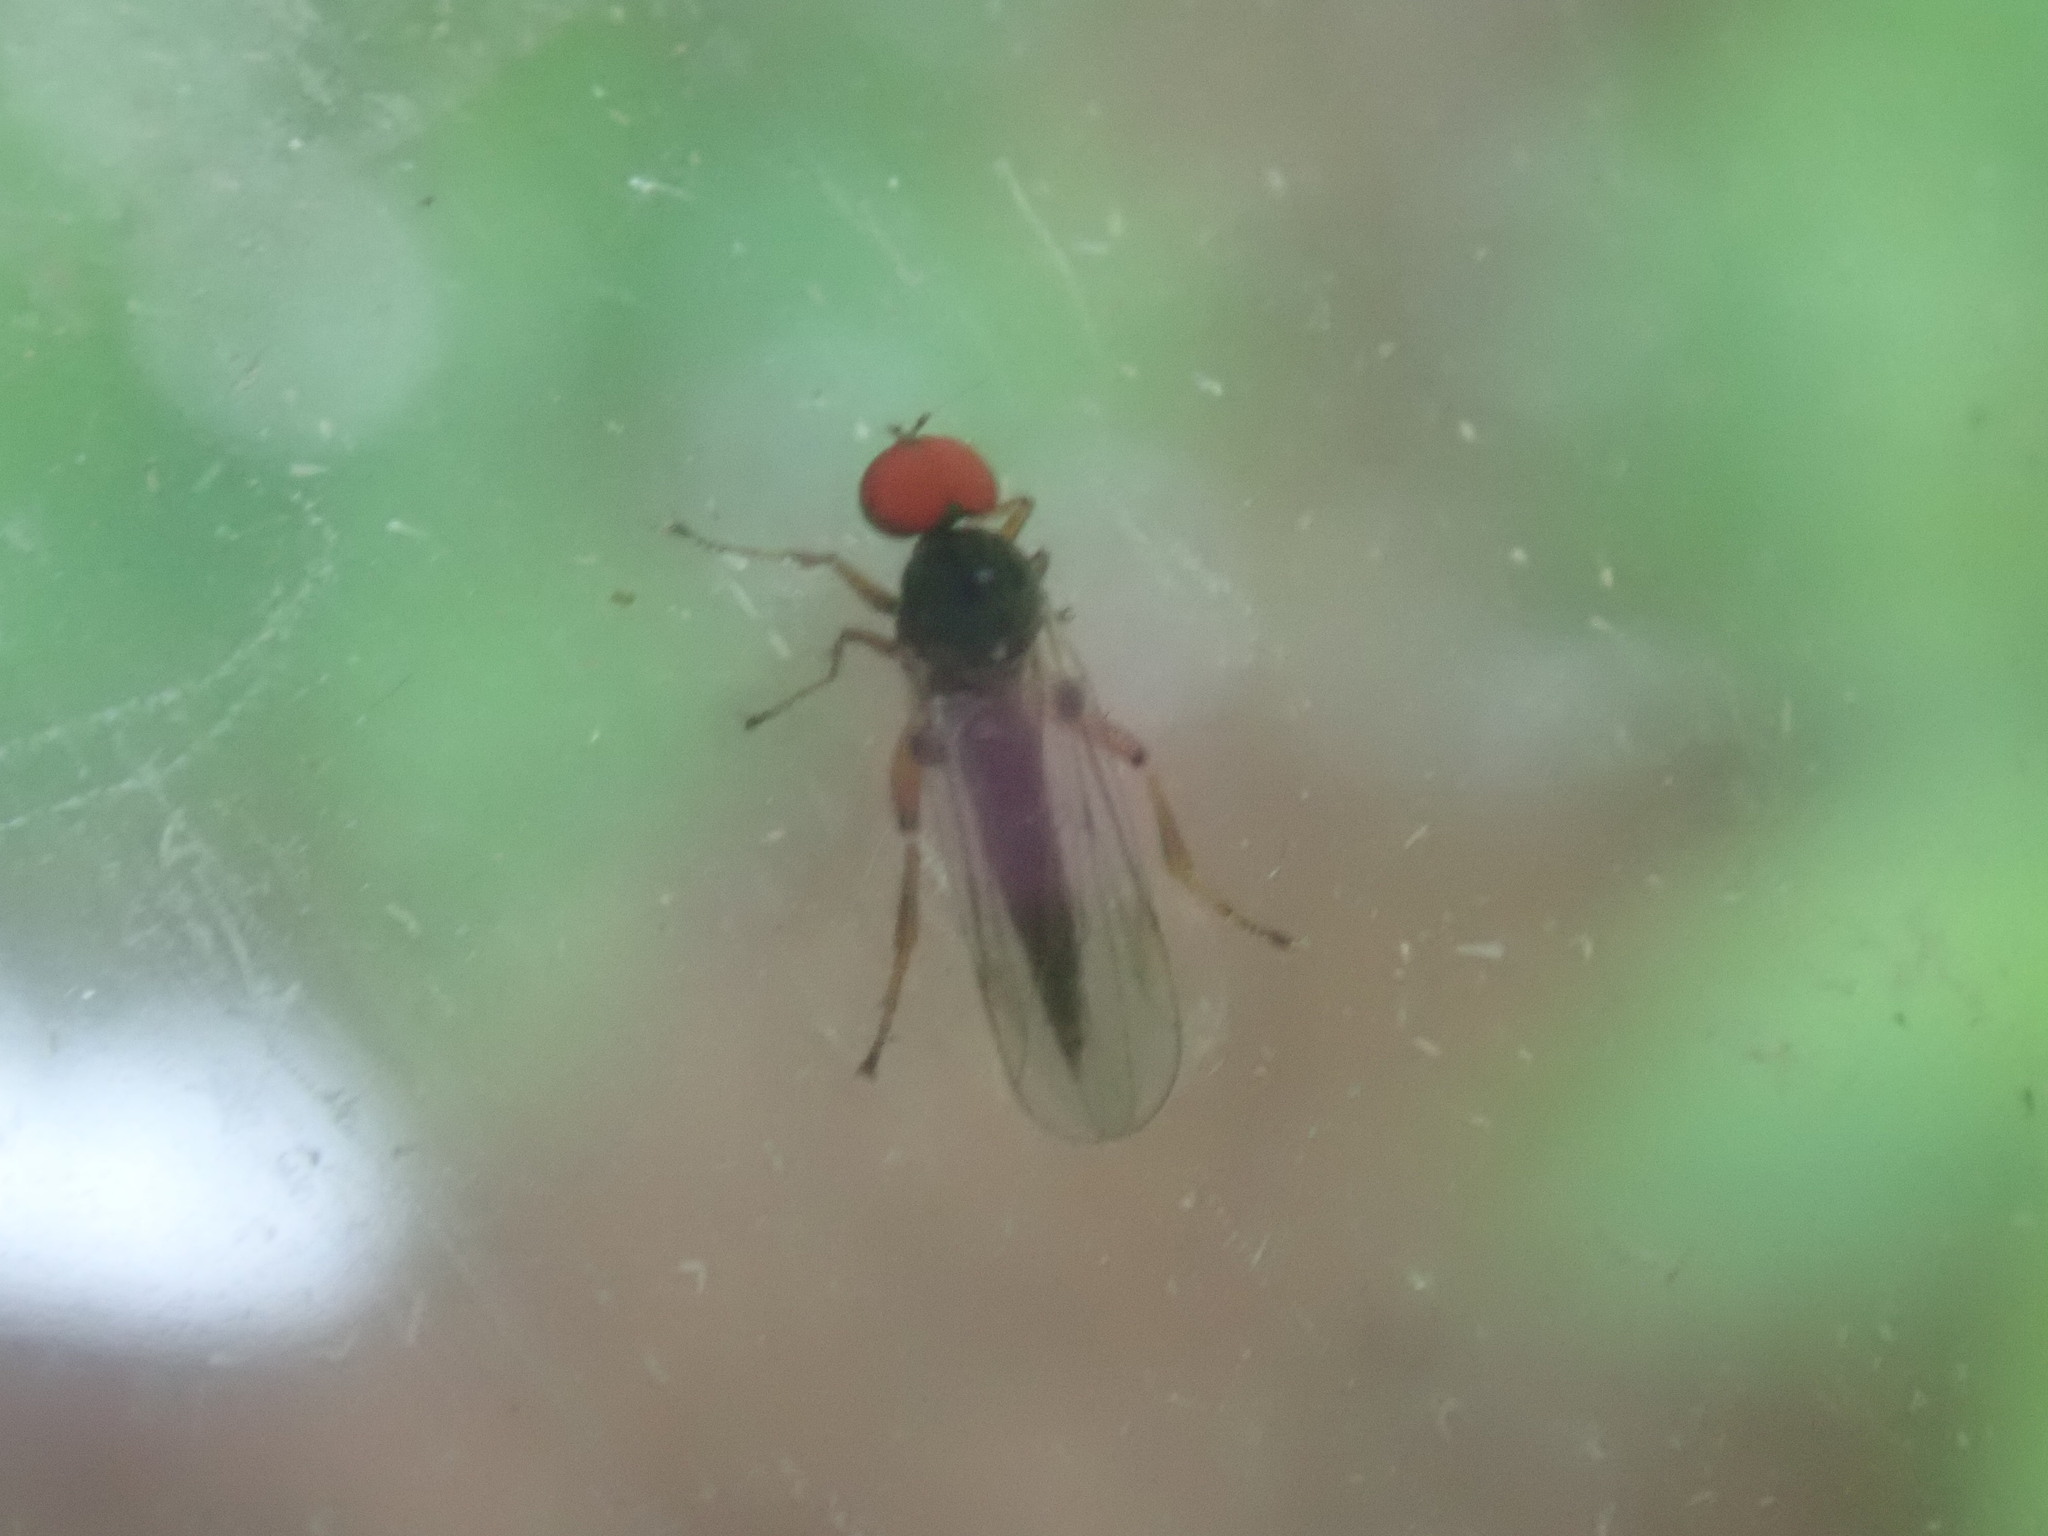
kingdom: Animalia
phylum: Arthropoda
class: Insecta
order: Diptera
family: Hybotidae
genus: Syneches
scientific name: Syneches hyalinus
